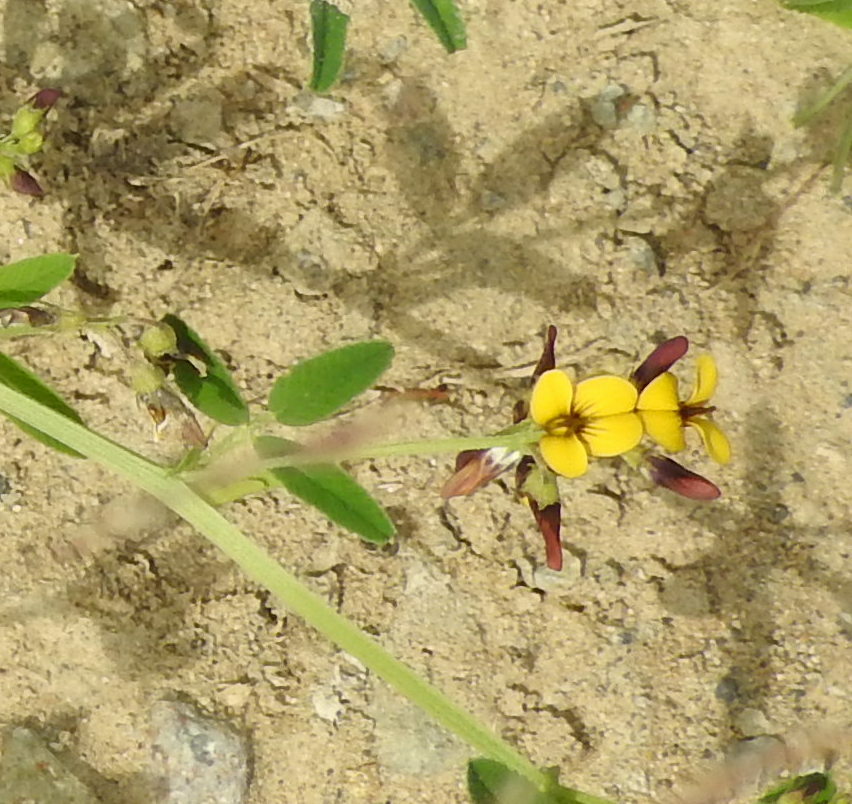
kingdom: Plantae
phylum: Tracheophyta
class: Magnoliopsida
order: Fabales
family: Fabaceae
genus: Medicago
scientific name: Medicago ruthenica
